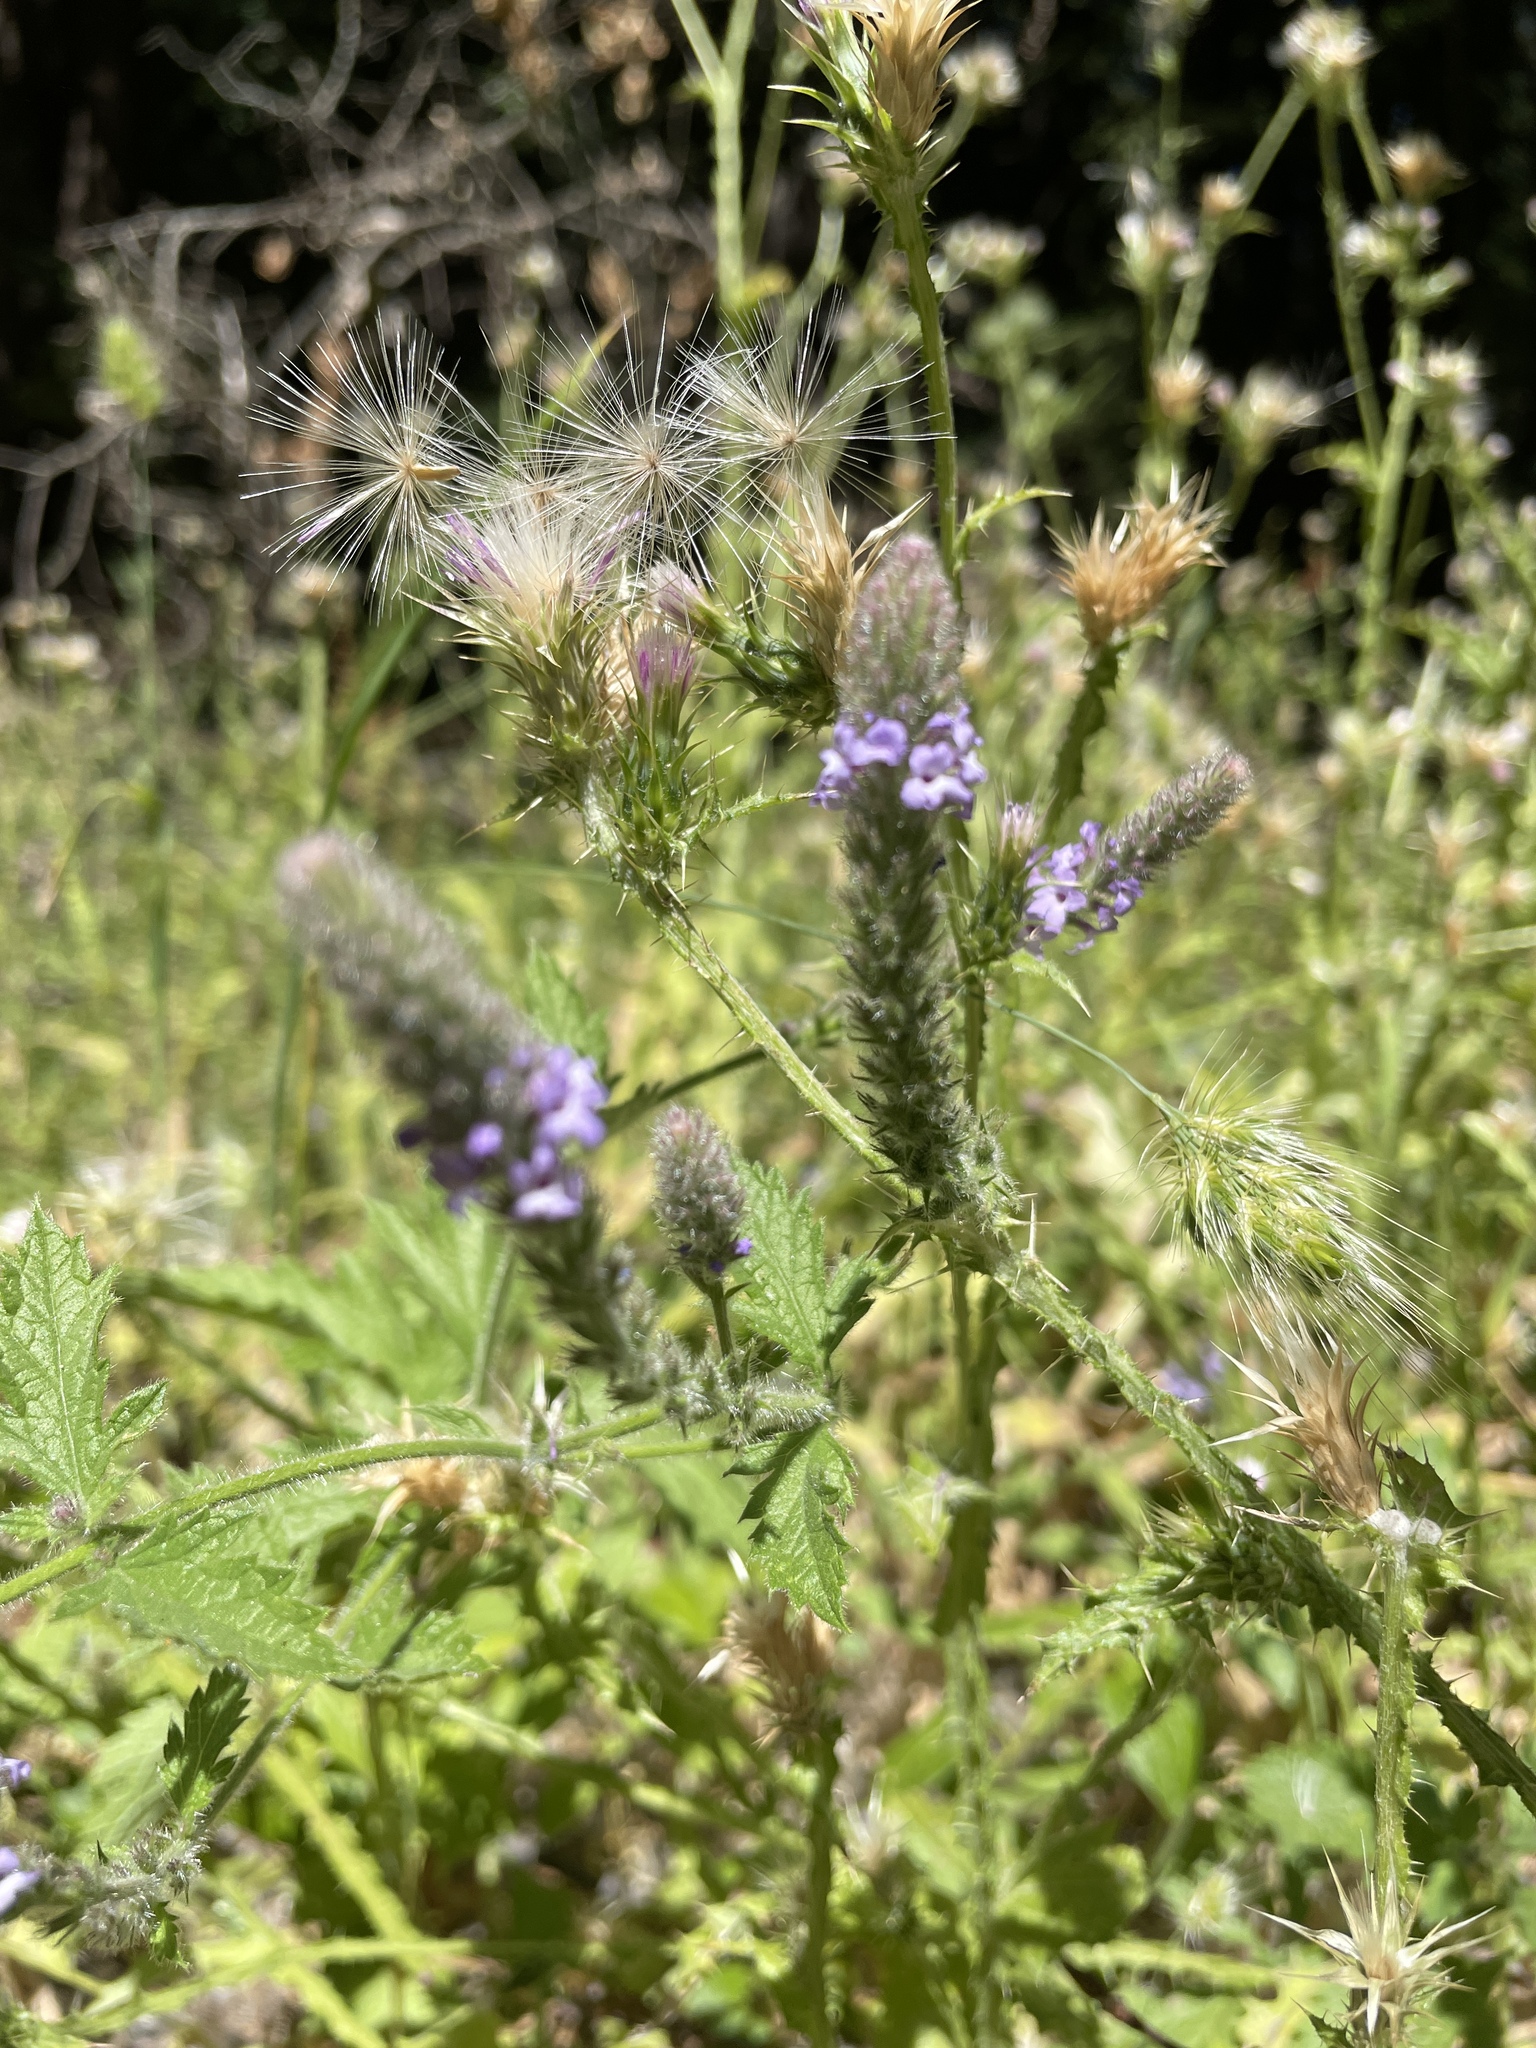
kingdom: Plantae
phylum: Tracheophyta
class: Magnoliopsida
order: Lamiales
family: Verbenaceae
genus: Verbena
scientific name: Verbena lasiostachys
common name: Vervain
